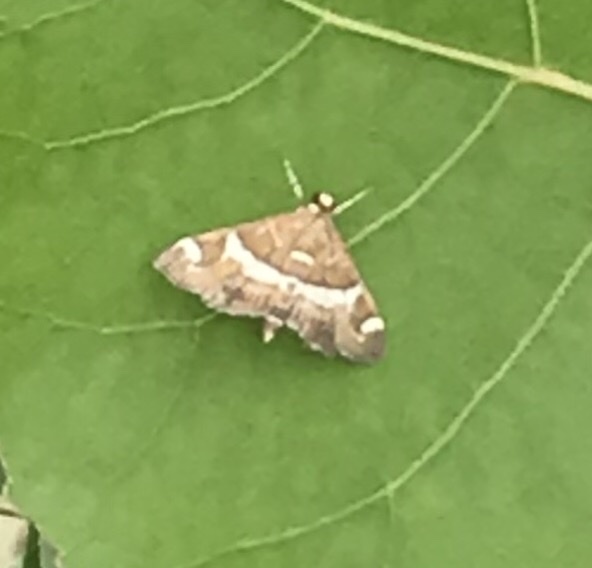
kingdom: Animalia
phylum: Arthropoda
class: Insecta
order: Lepidoptera
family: Crambidae
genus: Spoladea
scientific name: Spoladea recurvalis
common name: Beet webworm moth
